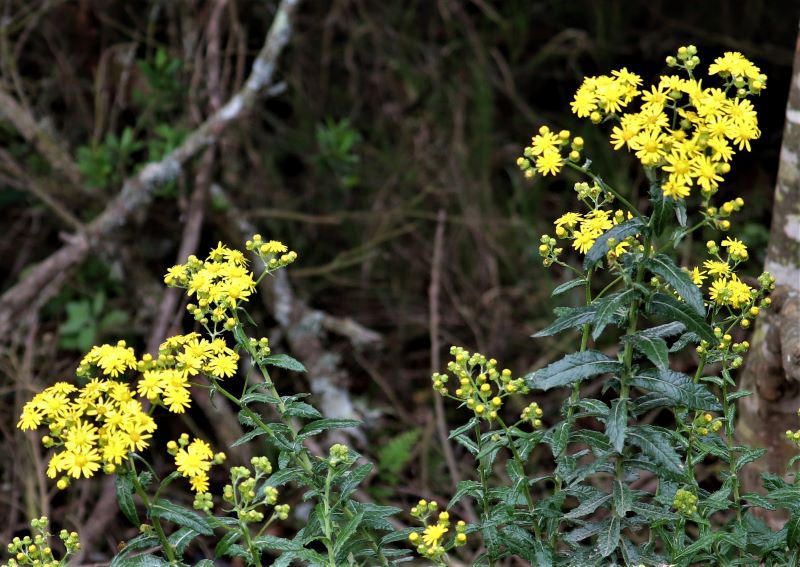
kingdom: Plantae
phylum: Tracheophyta
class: Magnoliopsida
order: Asterales
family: Asteraceae
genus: Senecio
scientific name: Senecio ilicifolius
